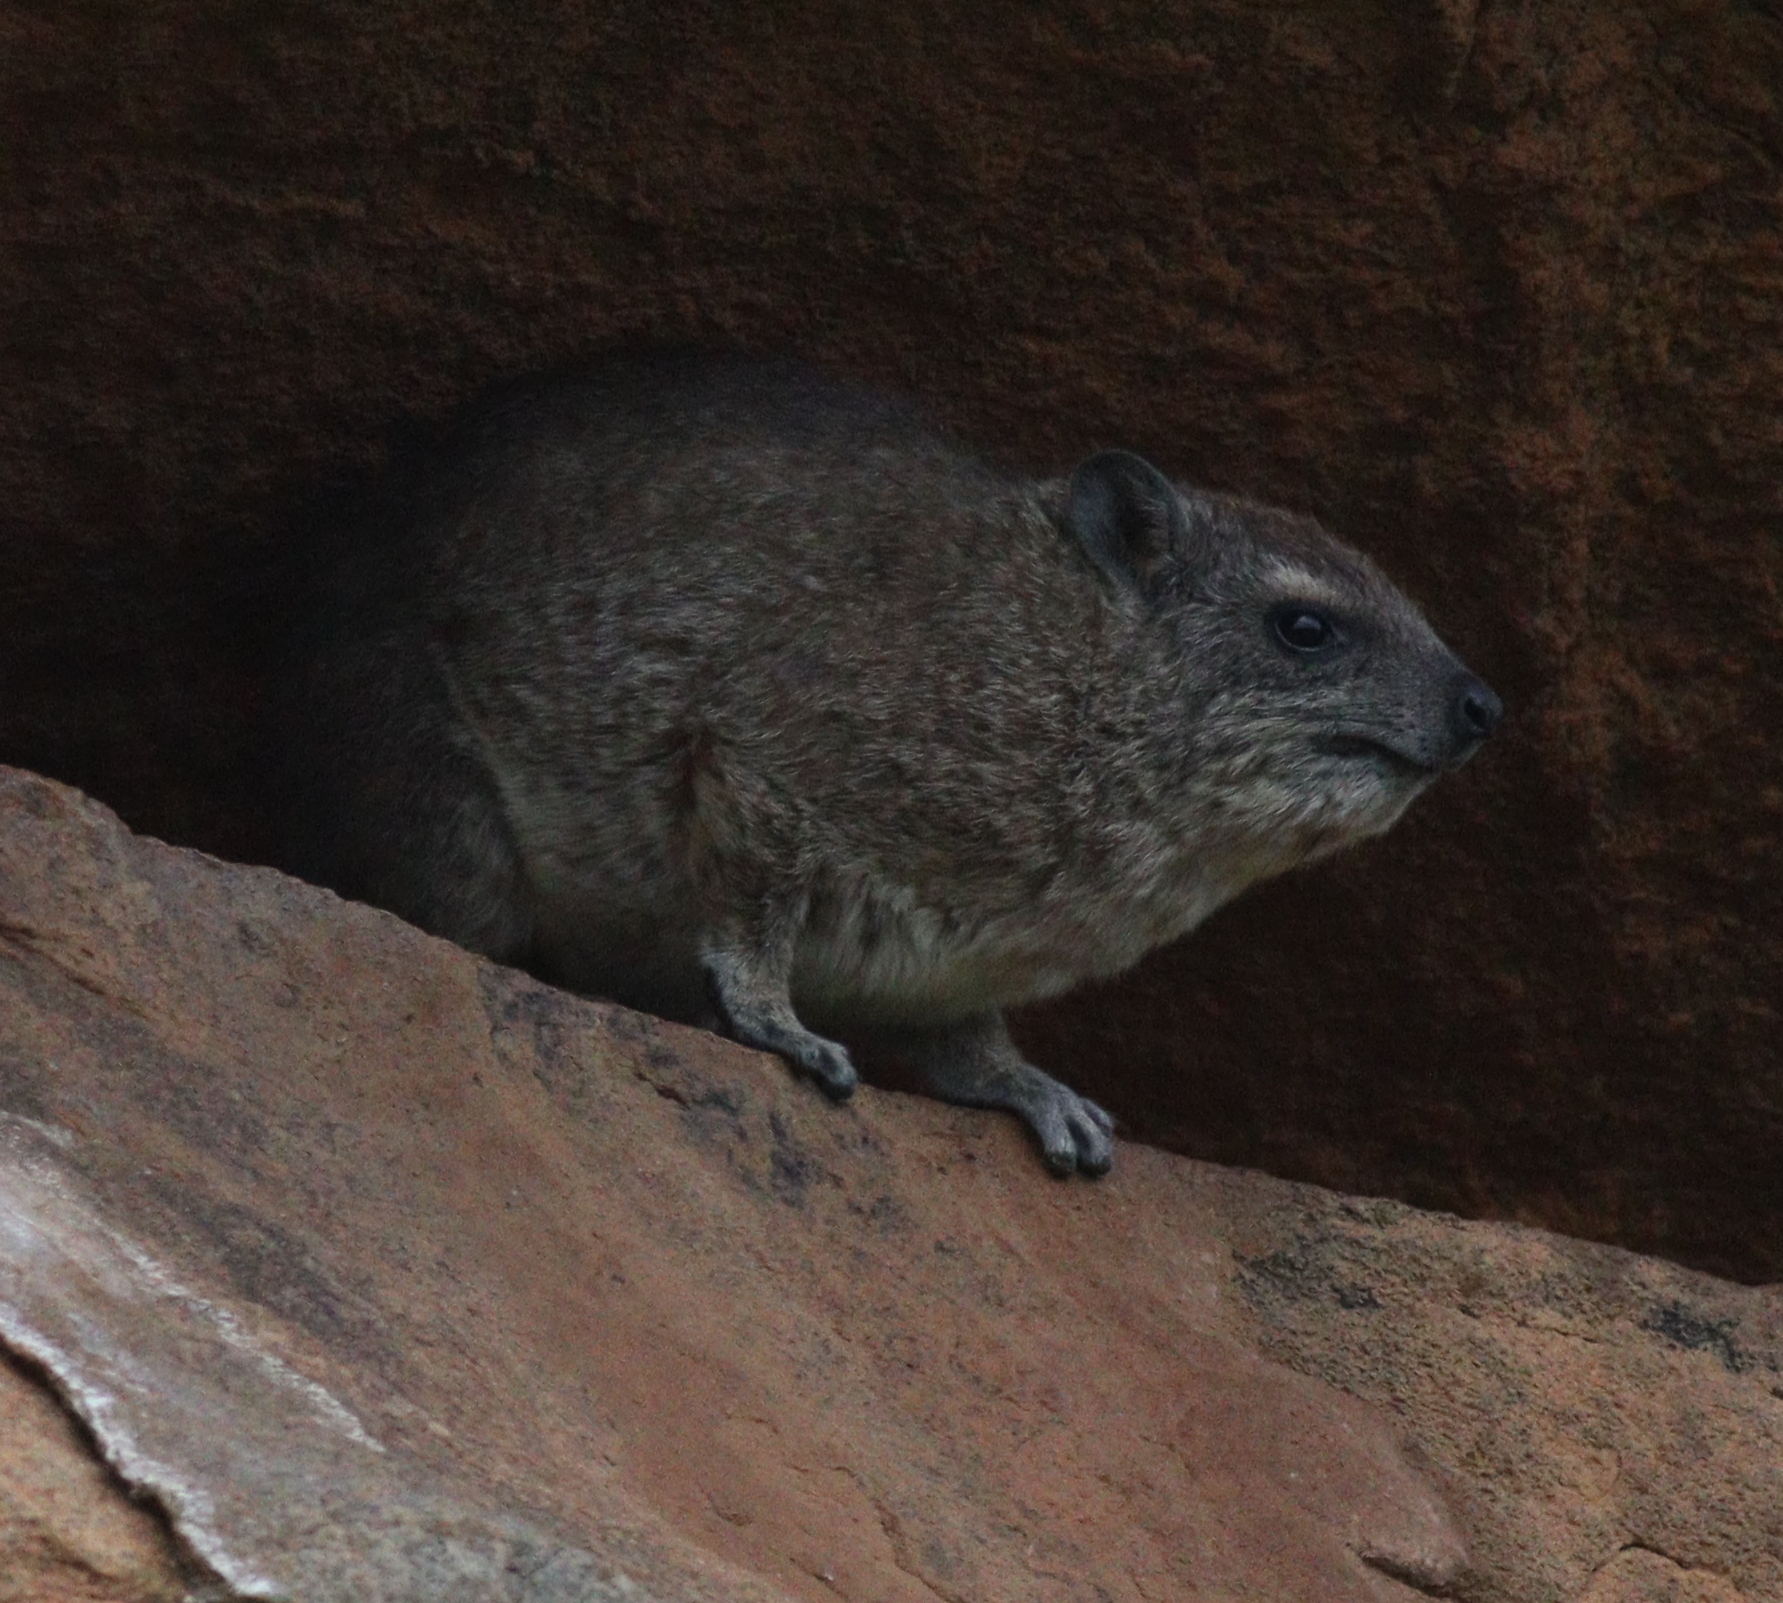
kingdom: Animalia
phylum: Chordata
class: Mammalia
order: Hyracoidea
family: Procaviidae
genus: Heterohyrax
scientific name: Heterohyrax brucei
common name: Bush hyrax
